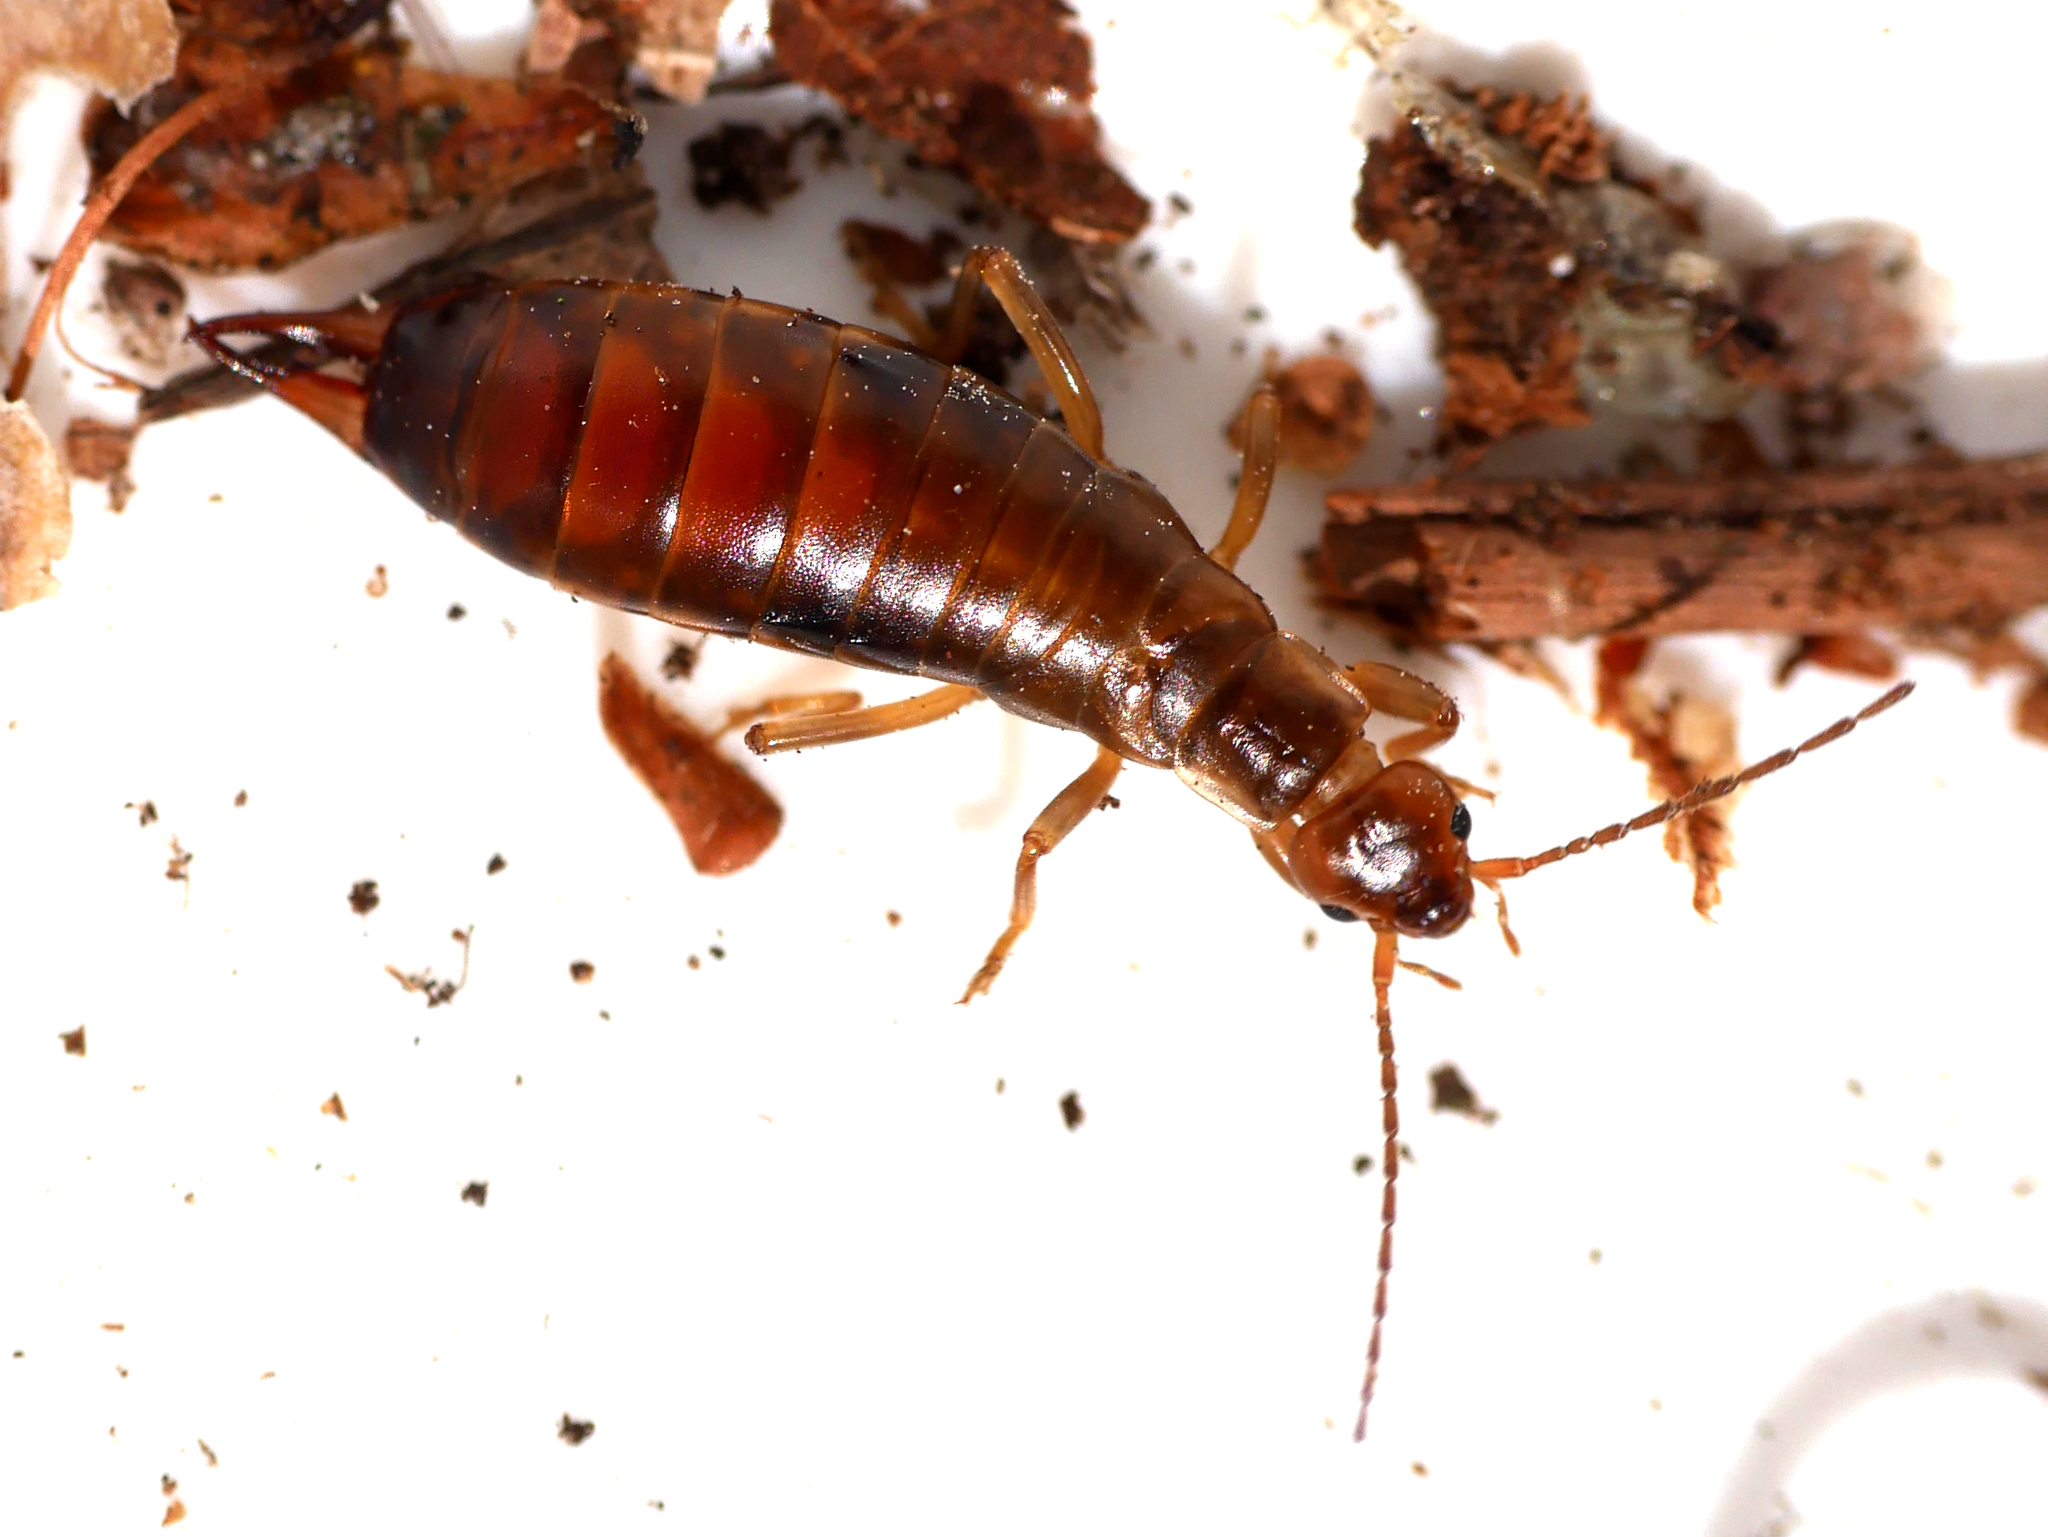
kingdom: Animalia
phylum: Arthropoda
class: Insecta
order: Dermaptera
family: Forficulidae
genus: Chelidurella
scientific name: Chelidurella acanthopygia
